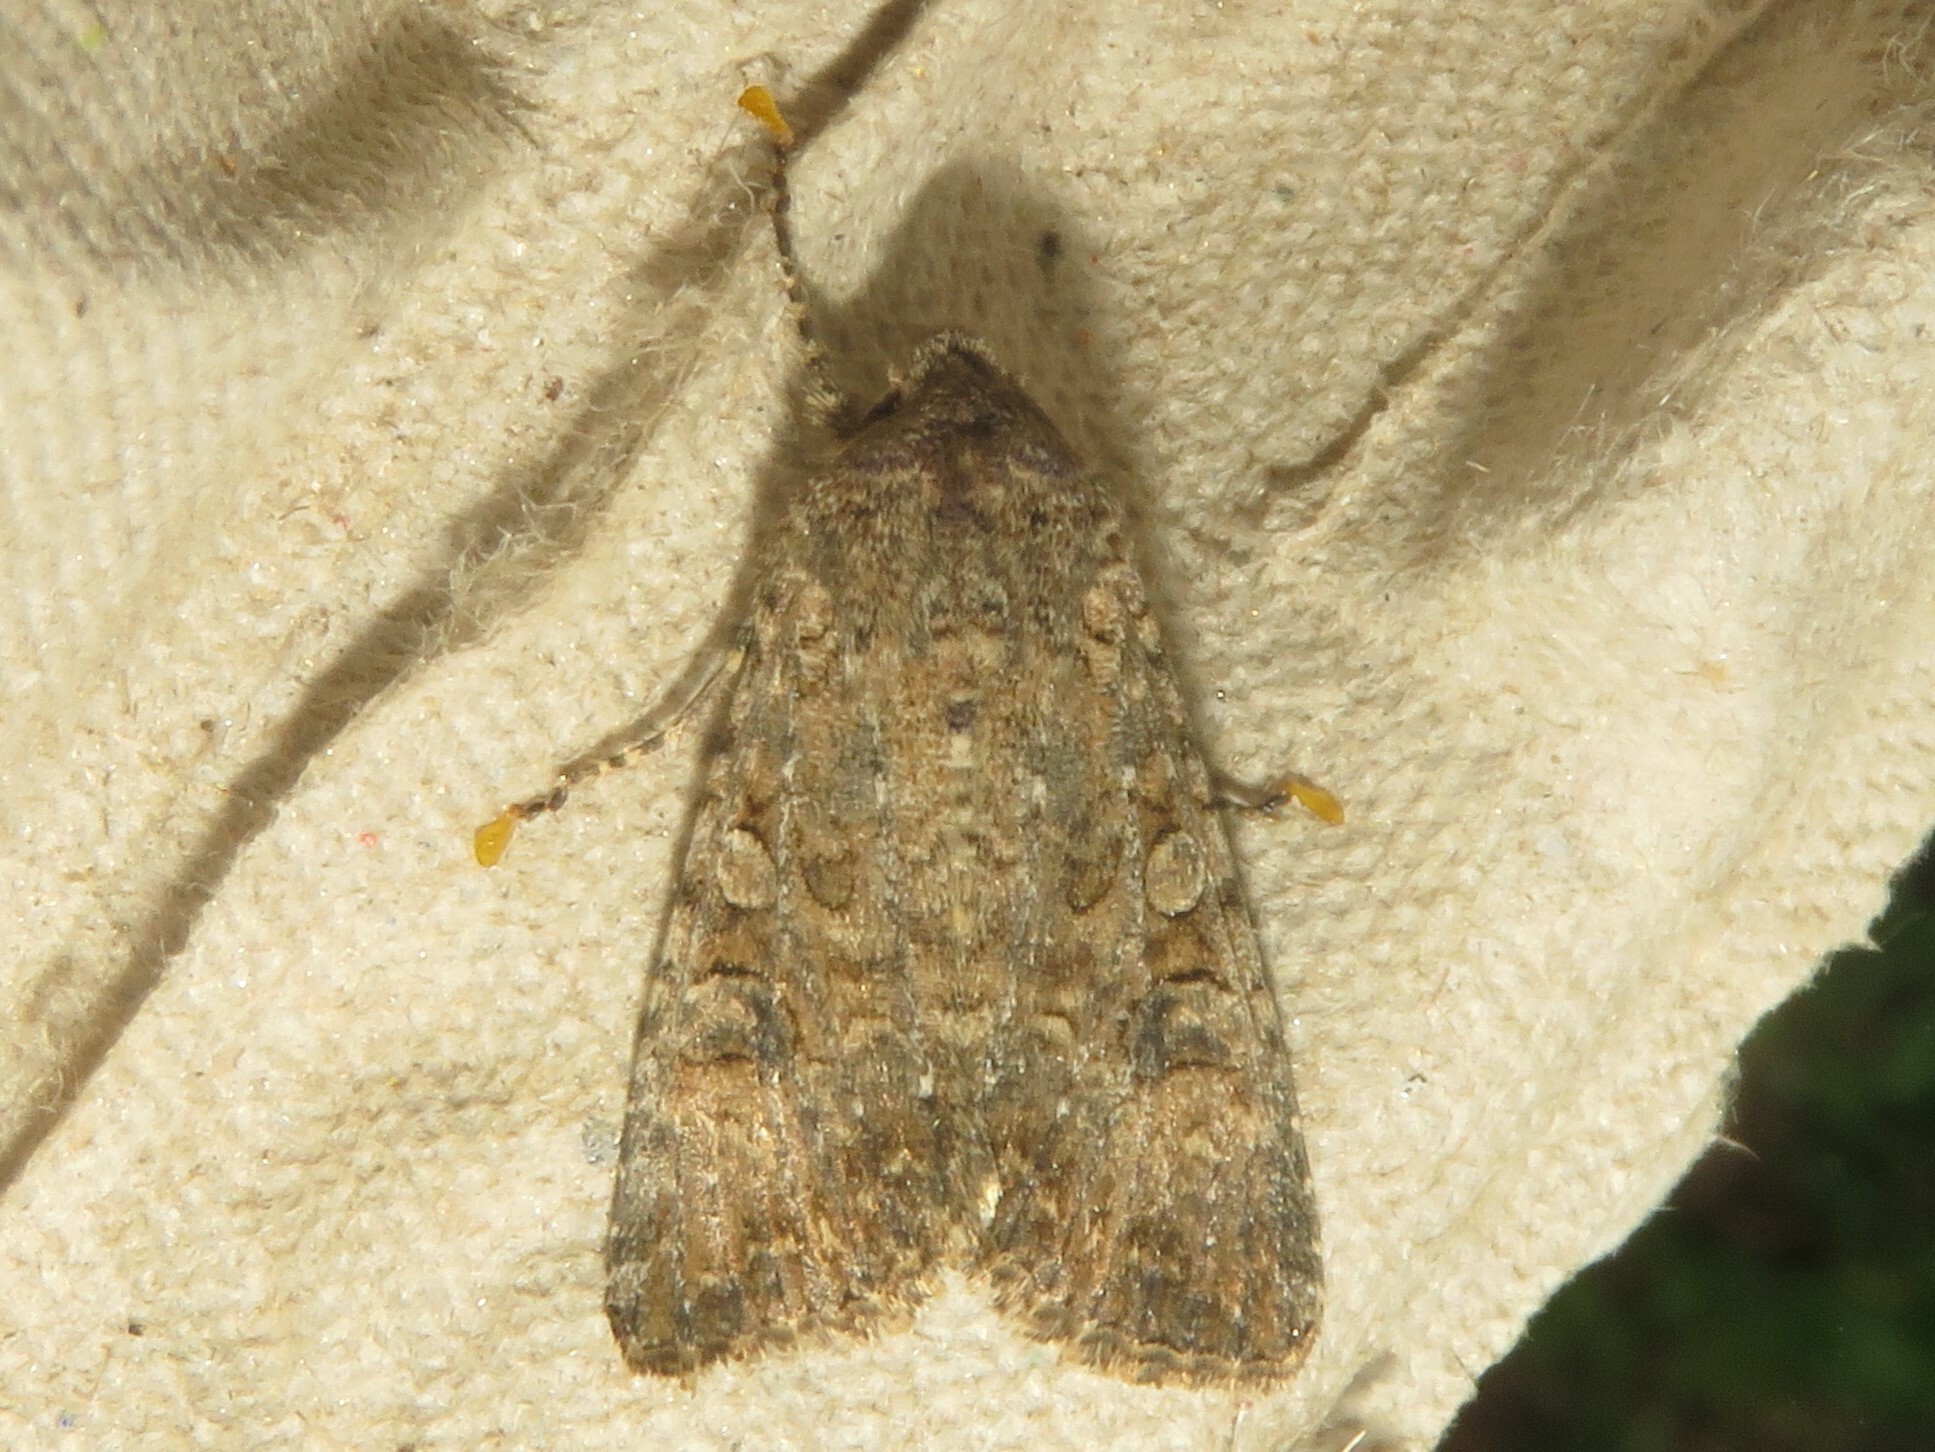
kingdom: Animalia
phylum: Arthropoda
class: Insecta
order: Lepidoptera
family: Noctuidae
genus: Anarta
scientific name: Anarta trifolii
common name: Clover cutworm moth
